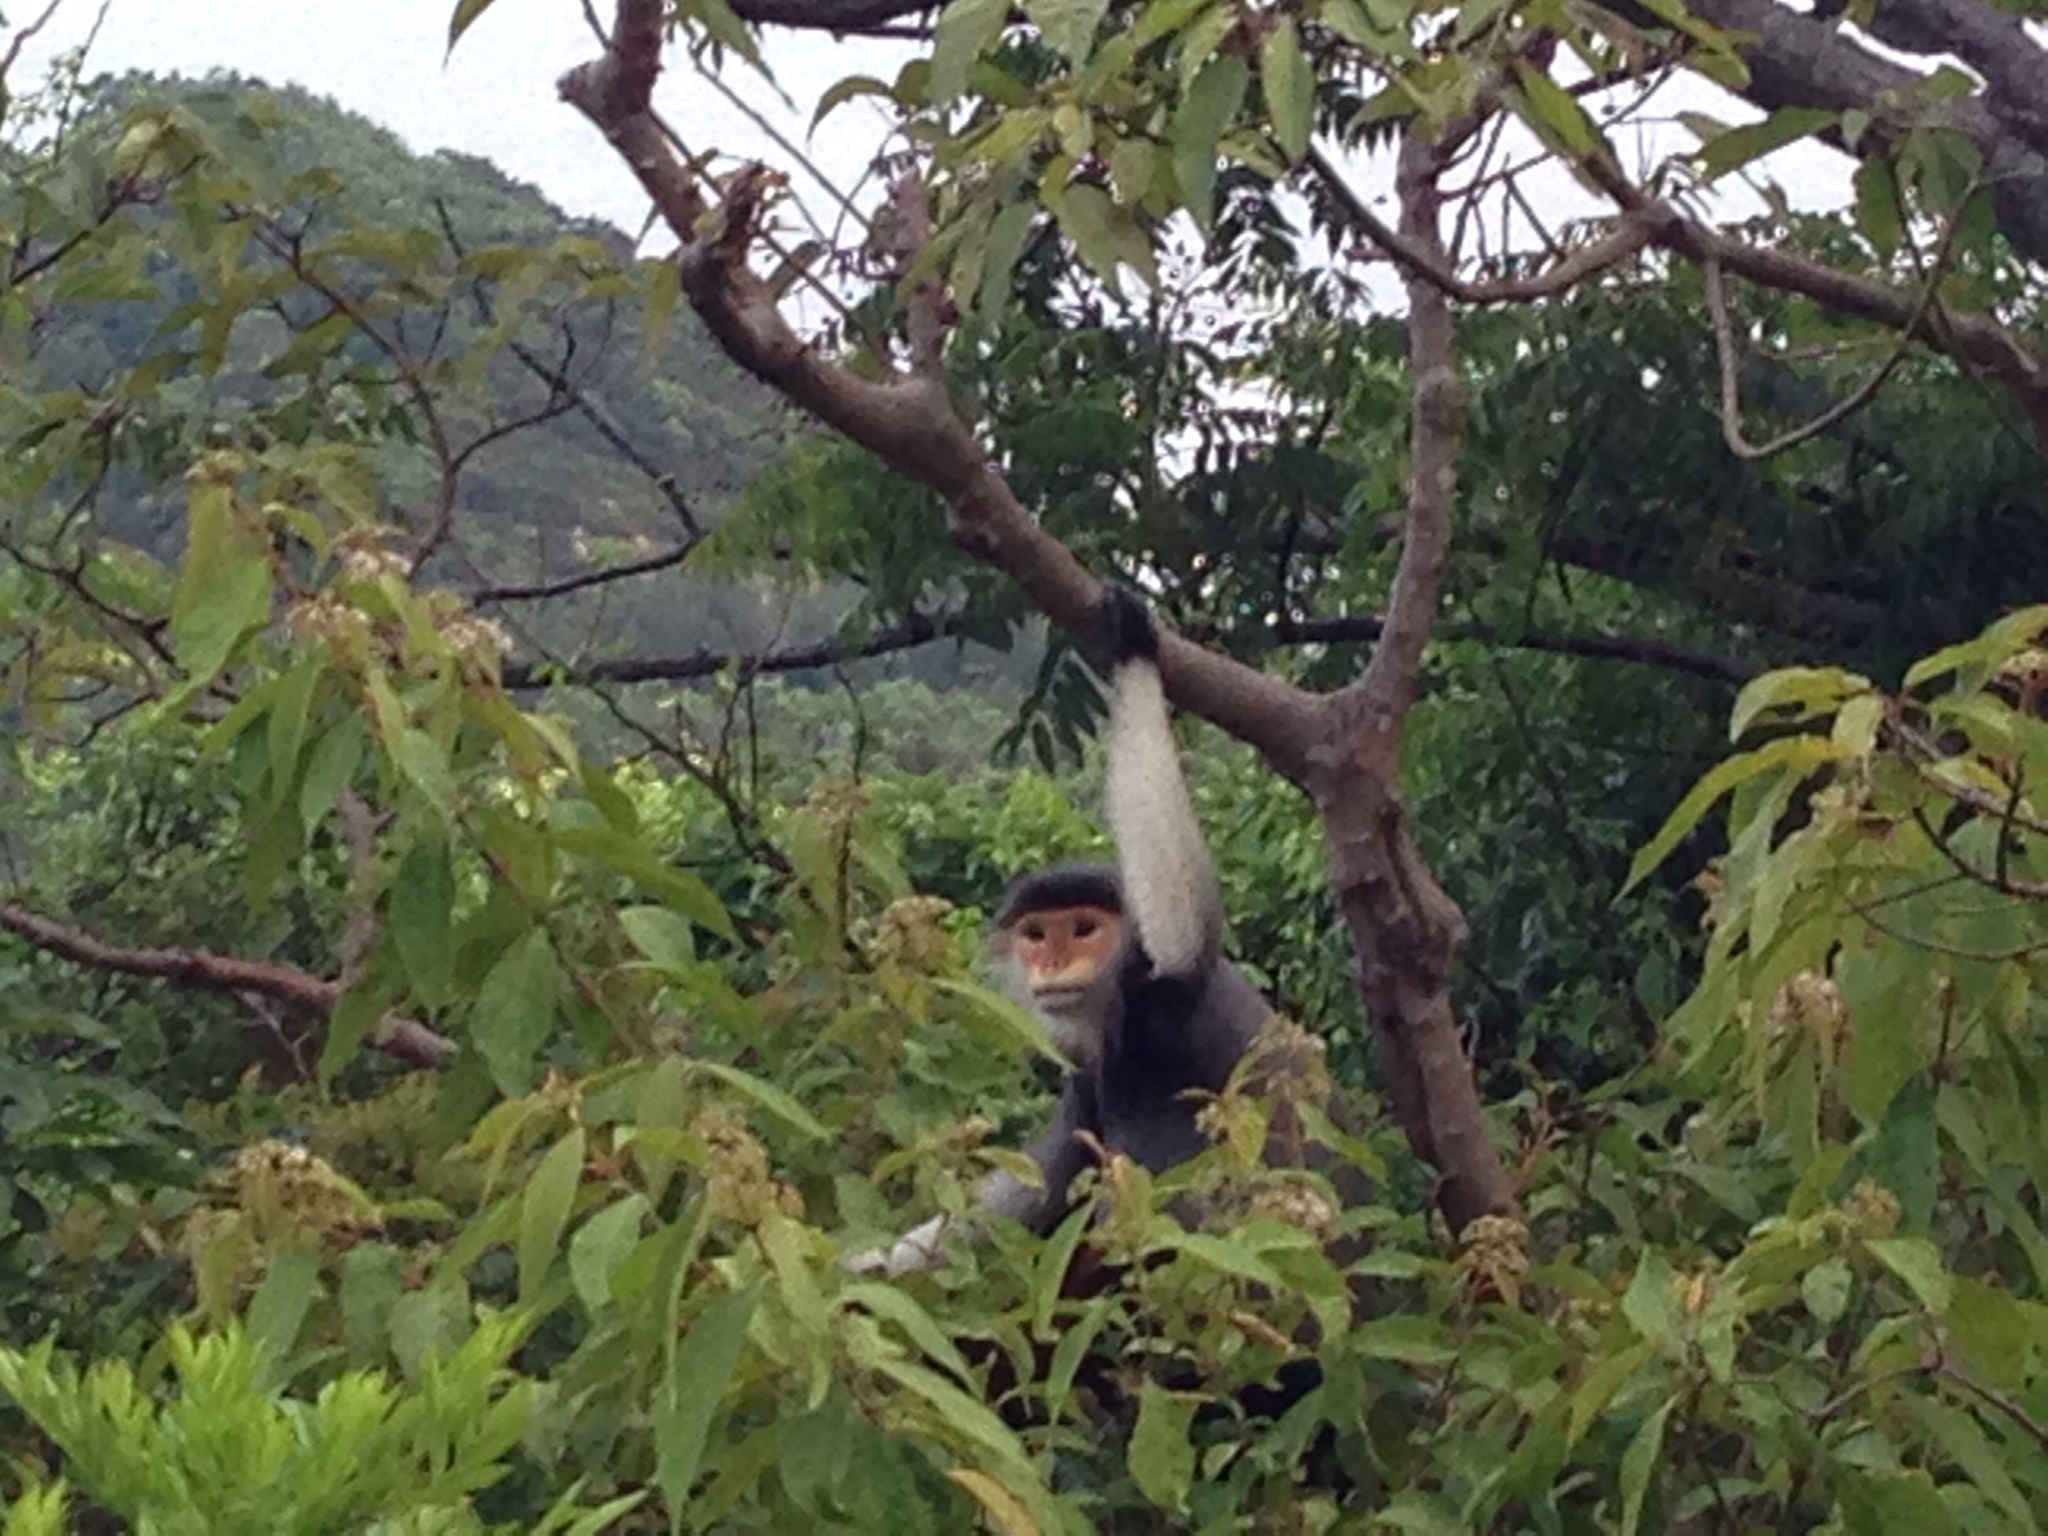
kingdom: Animalia
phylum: Chordata
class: Mammalia
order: Primates
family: Cercopithecidae
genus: Pygathrix
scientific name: Pygathrix nemaeus
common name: Red-shanked douc
